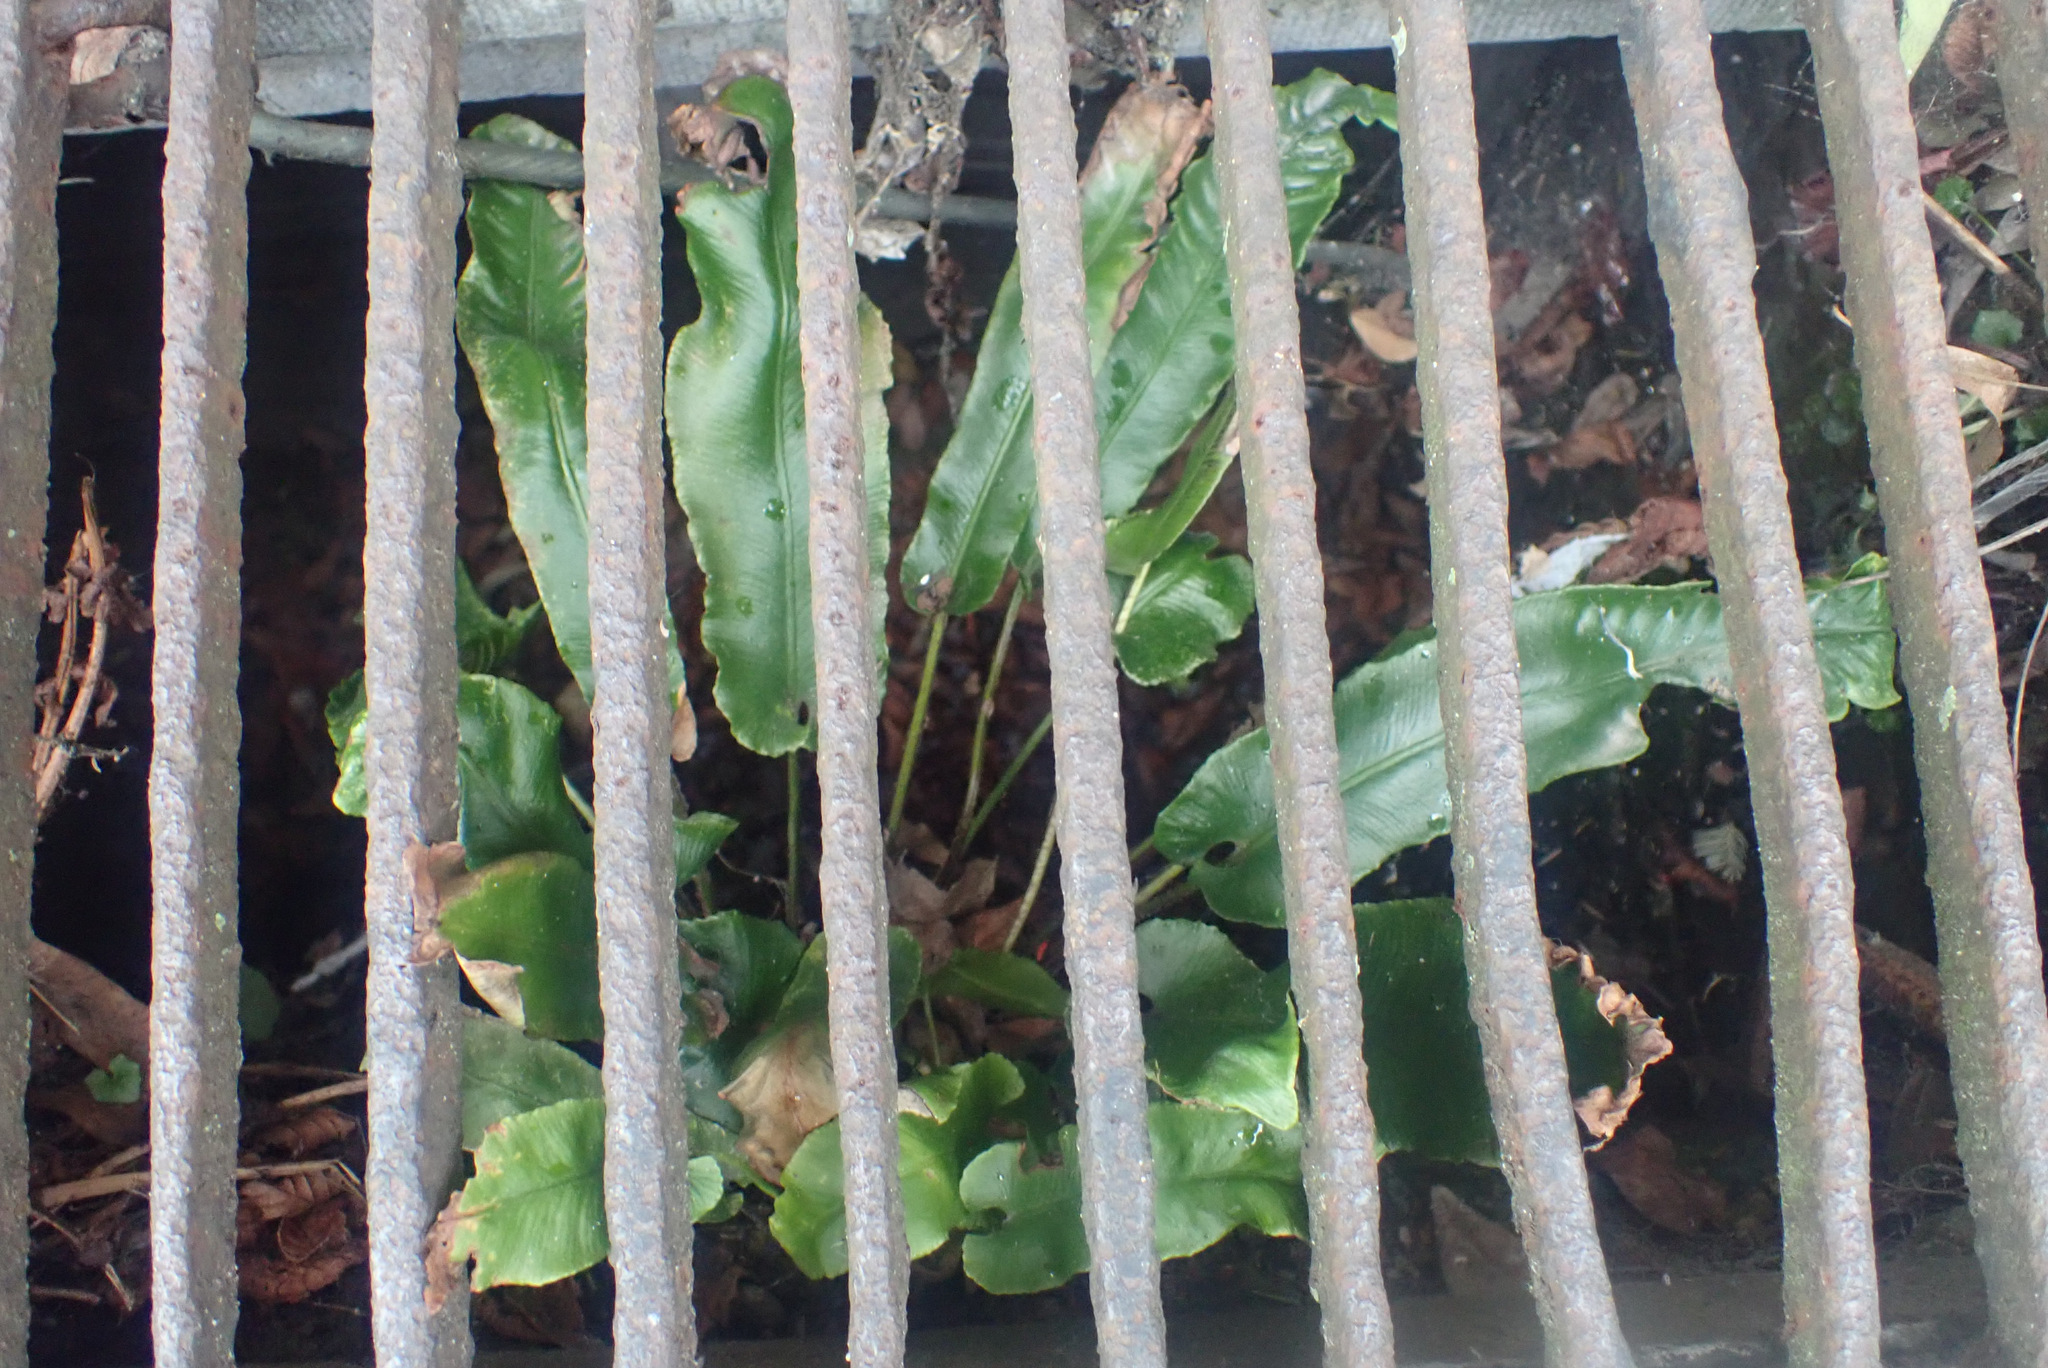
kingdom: Plantae
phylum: Tracheophyta
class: Polypodiopsida
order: Polypodiales
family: Aspleniaceae
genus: Asplenium
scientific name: Asplenium scolopendrium
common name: Hart's-tongue fern
